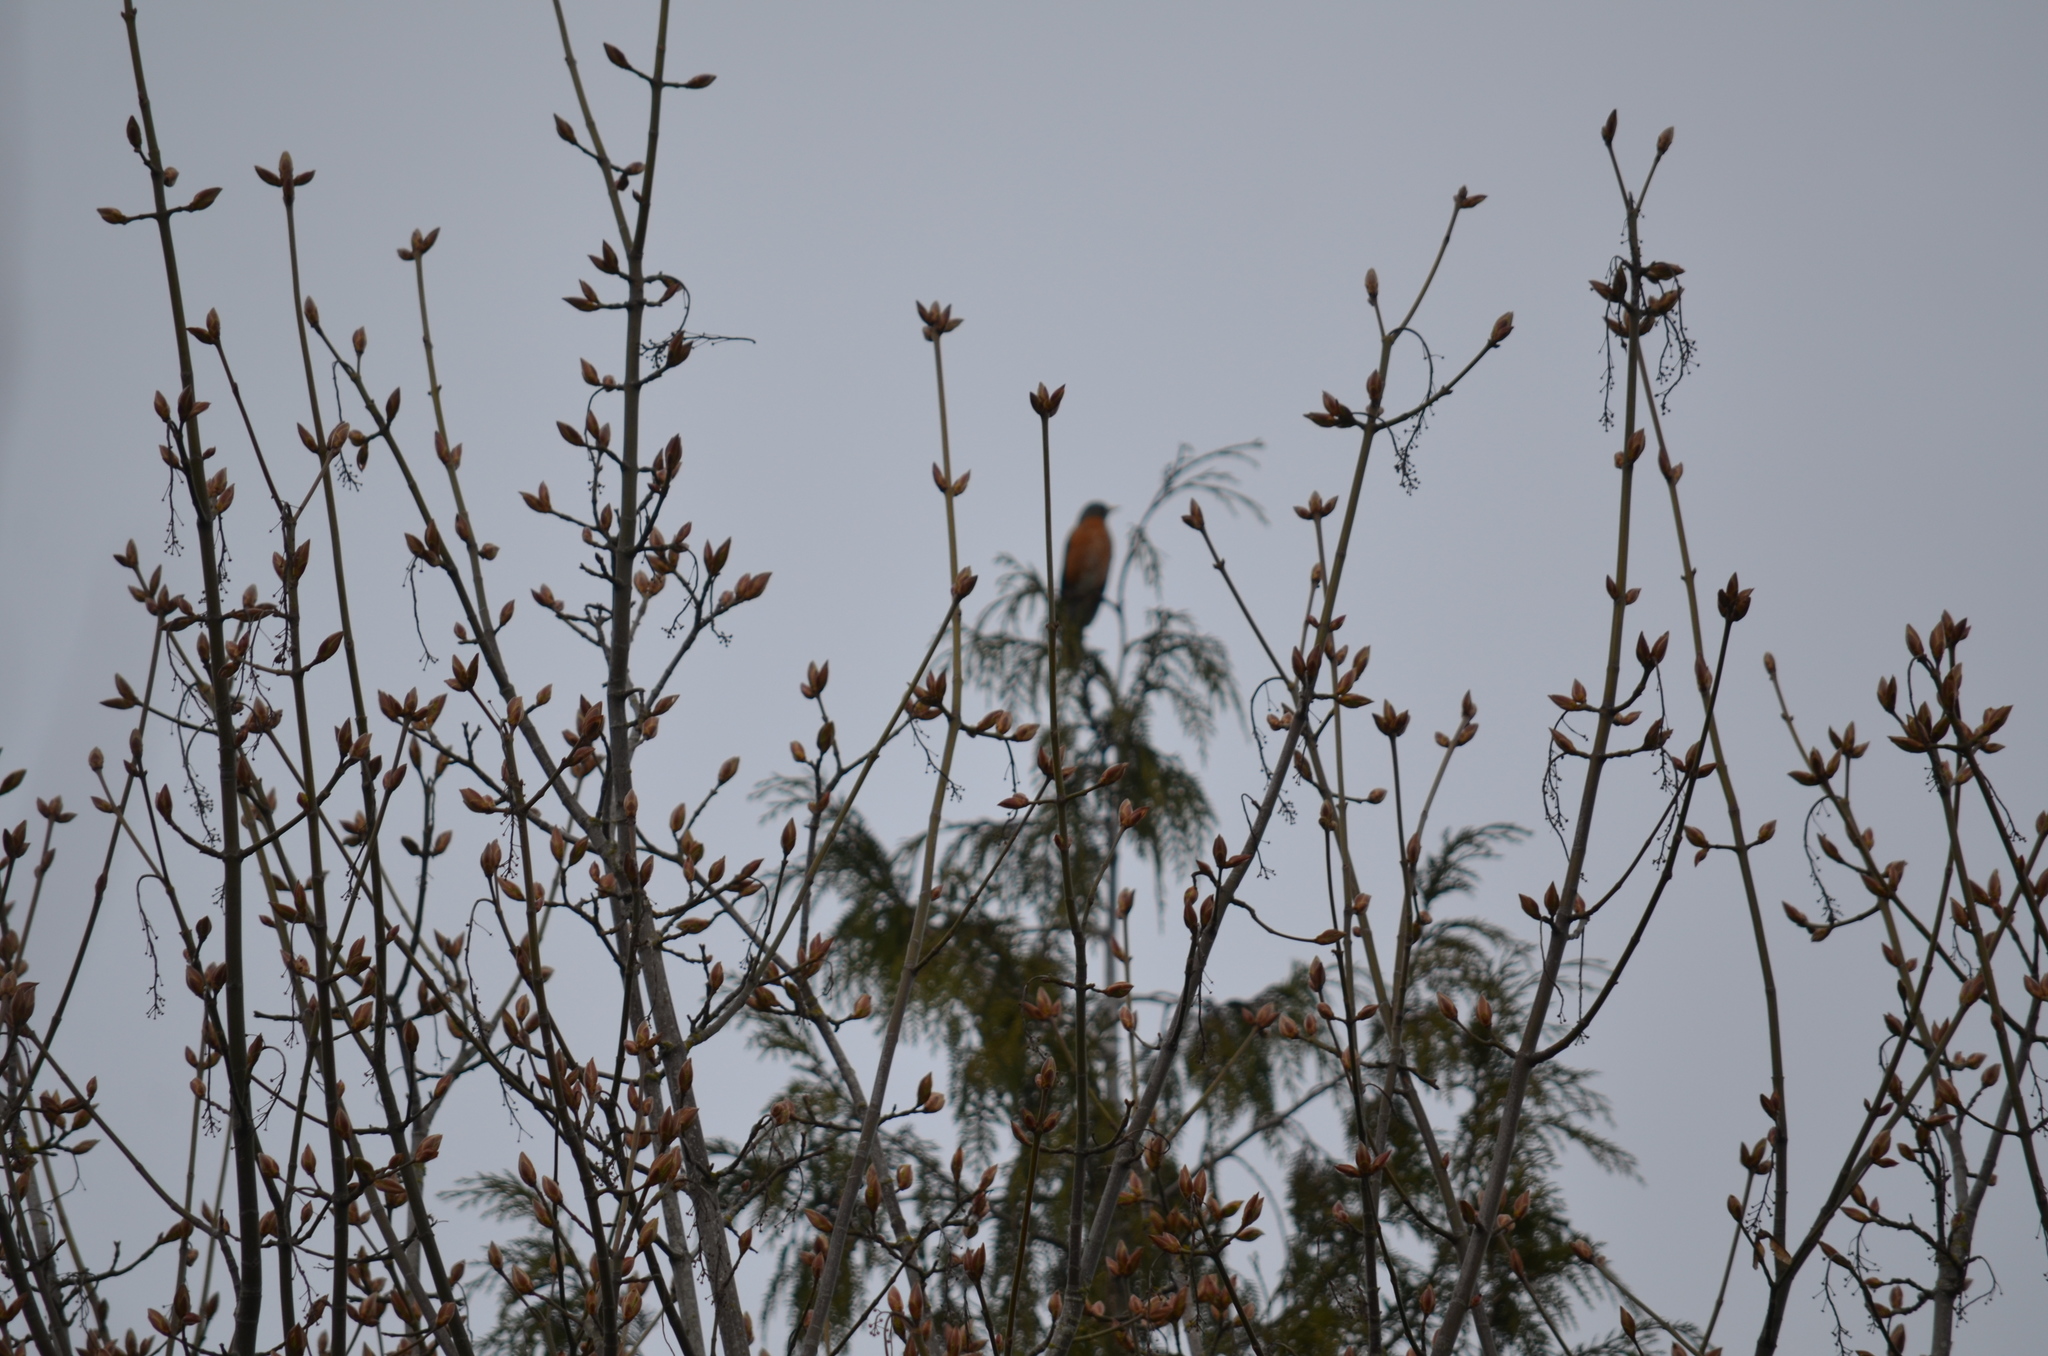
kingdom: Animalia
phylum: Chordata
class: Aves
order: Passeriformes
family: Turdidae
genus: Turdus
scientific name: Turdus migratorius
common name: American robin
